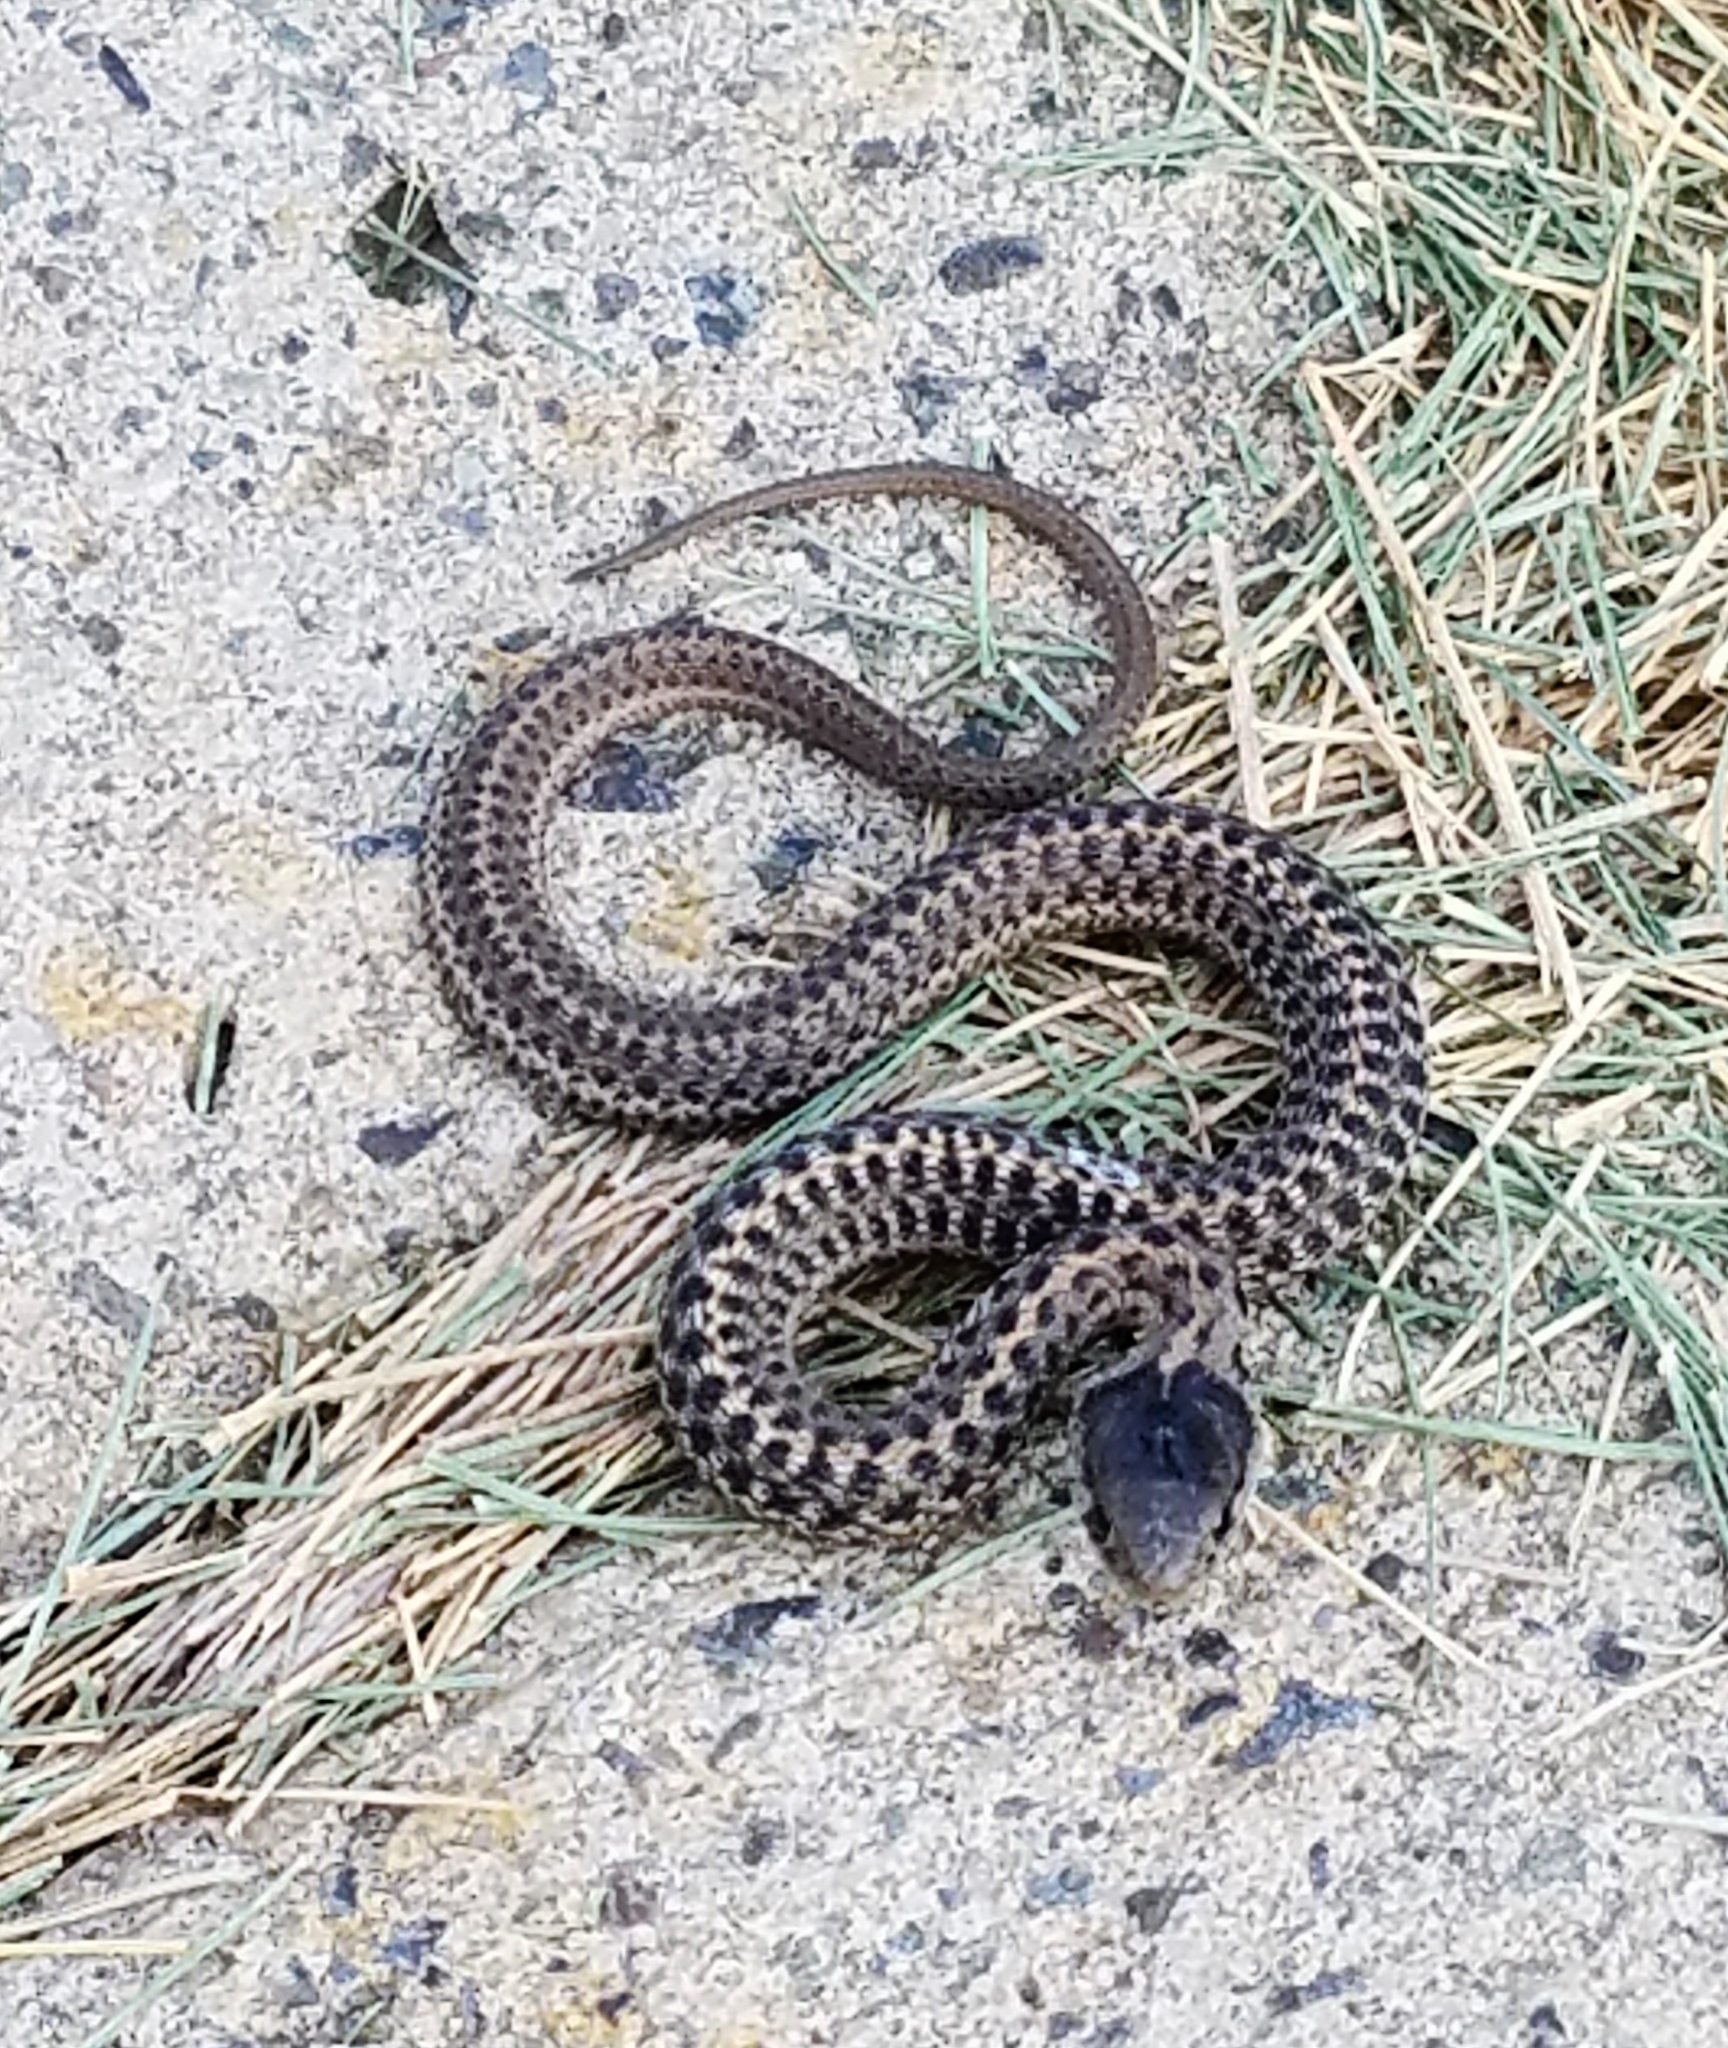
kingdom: Animalia
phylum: Chordata
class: Squamata
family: Colubridae
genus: Thamnophis
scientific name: Thamnophis elegans
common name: Western terrestrial garter snake
